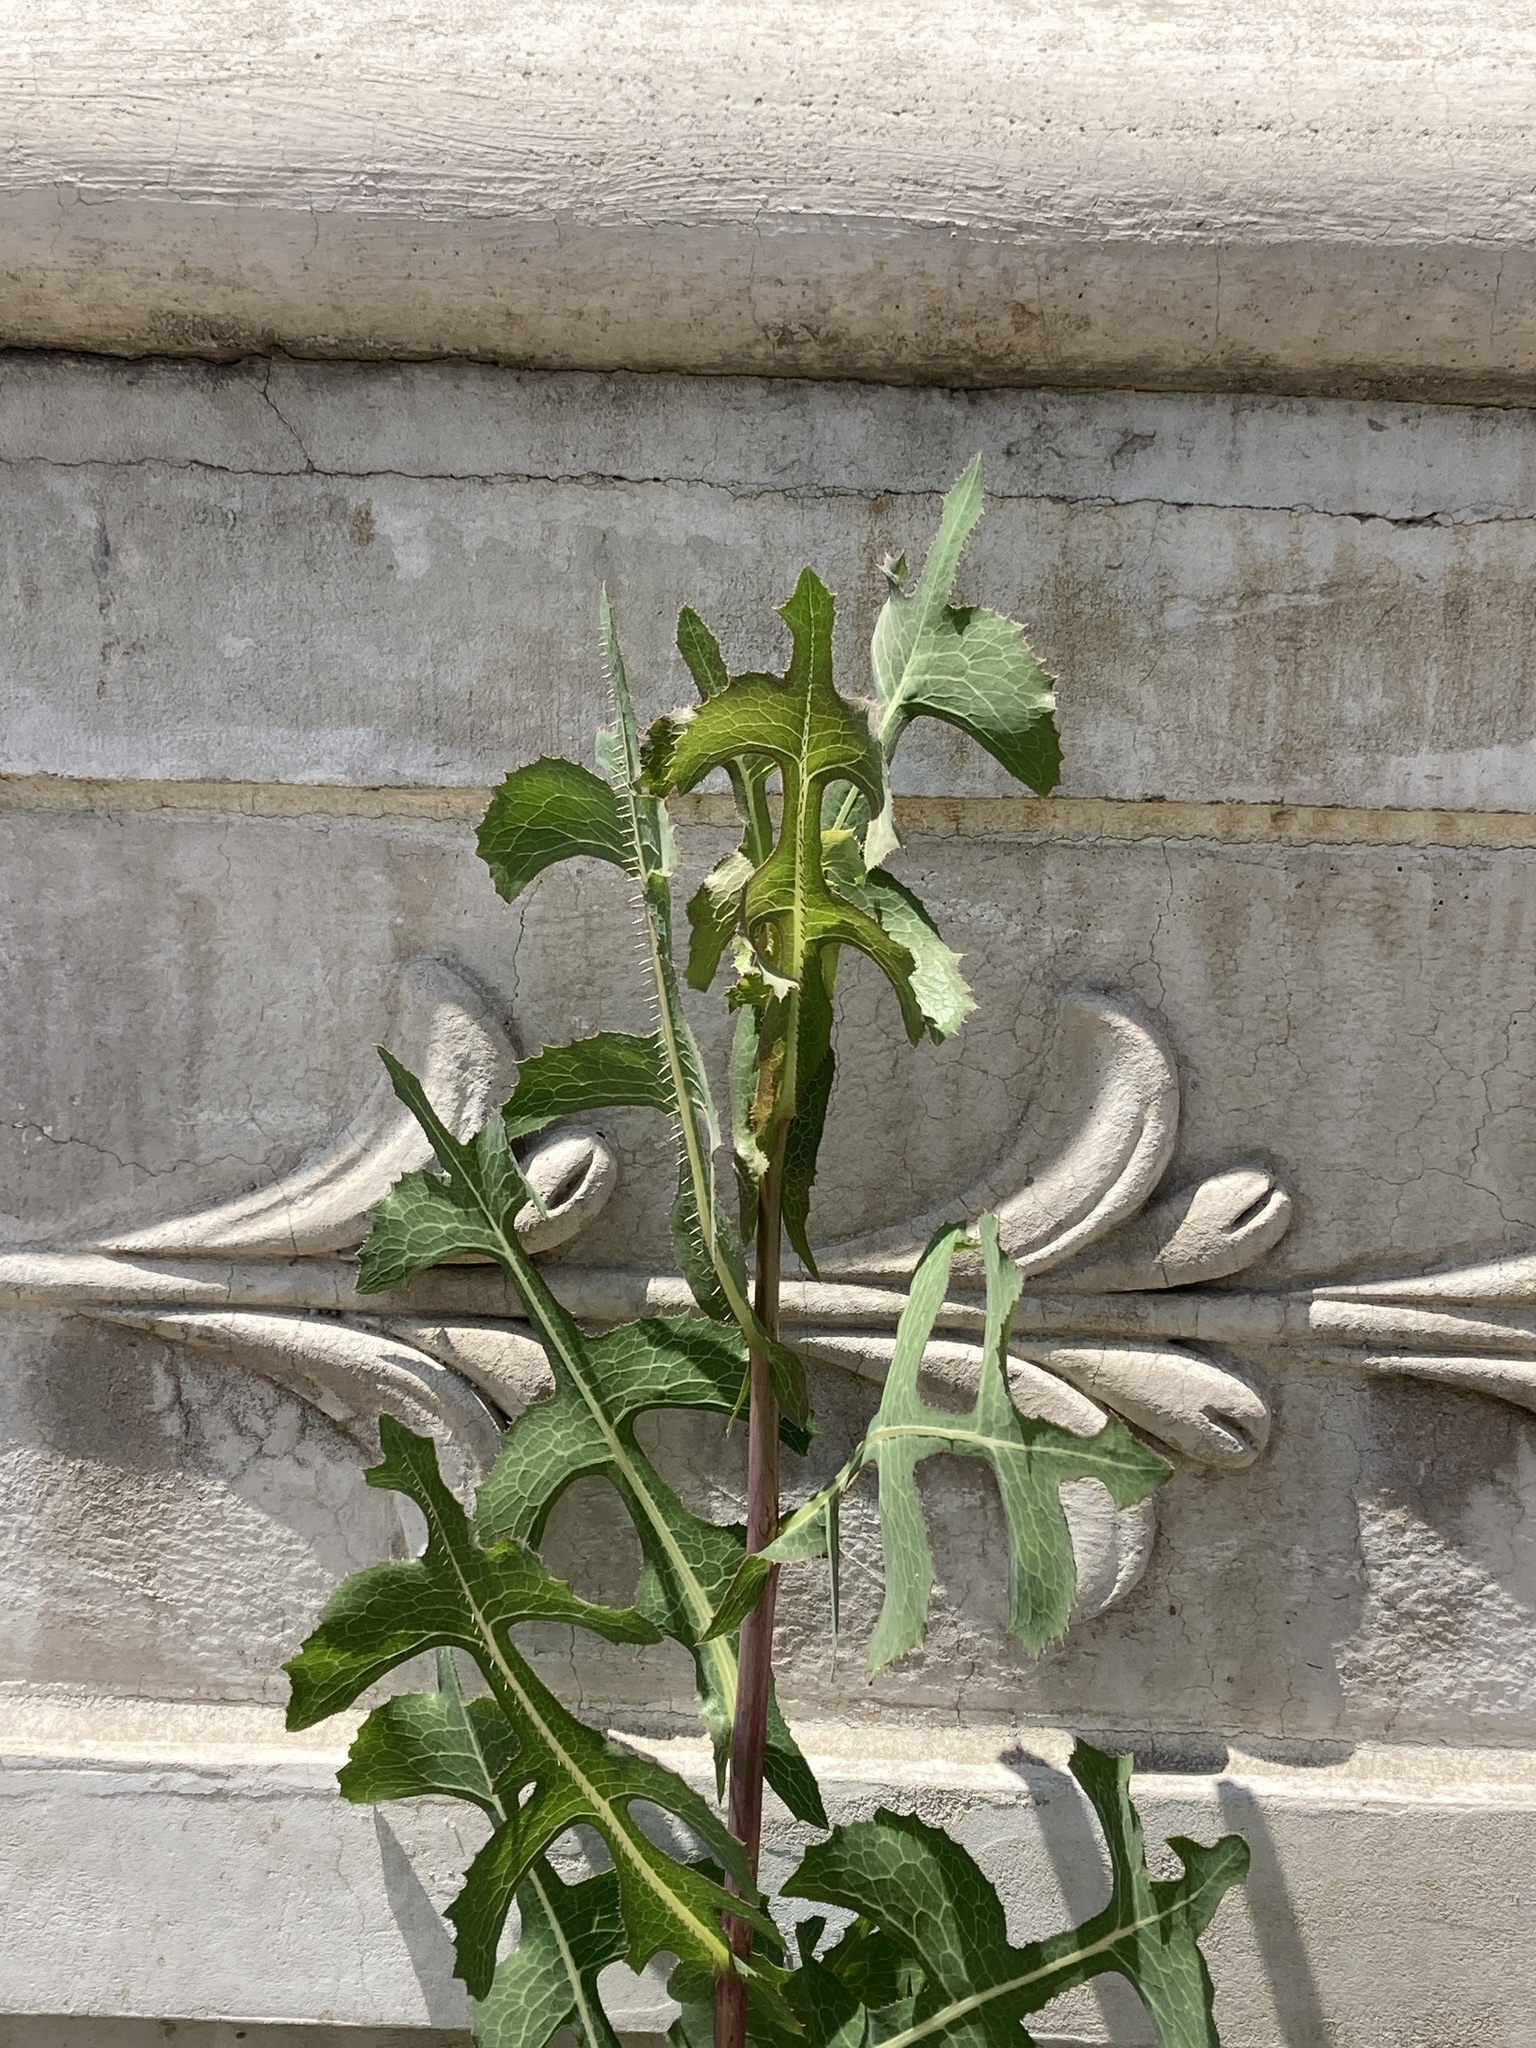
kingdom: Plantae
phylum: Tracheophyta
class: Magnoliopsida
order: Asterales
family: Asteraceae
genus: Lactuca
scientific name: Lactuca serriola
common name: Prickly lettuce
